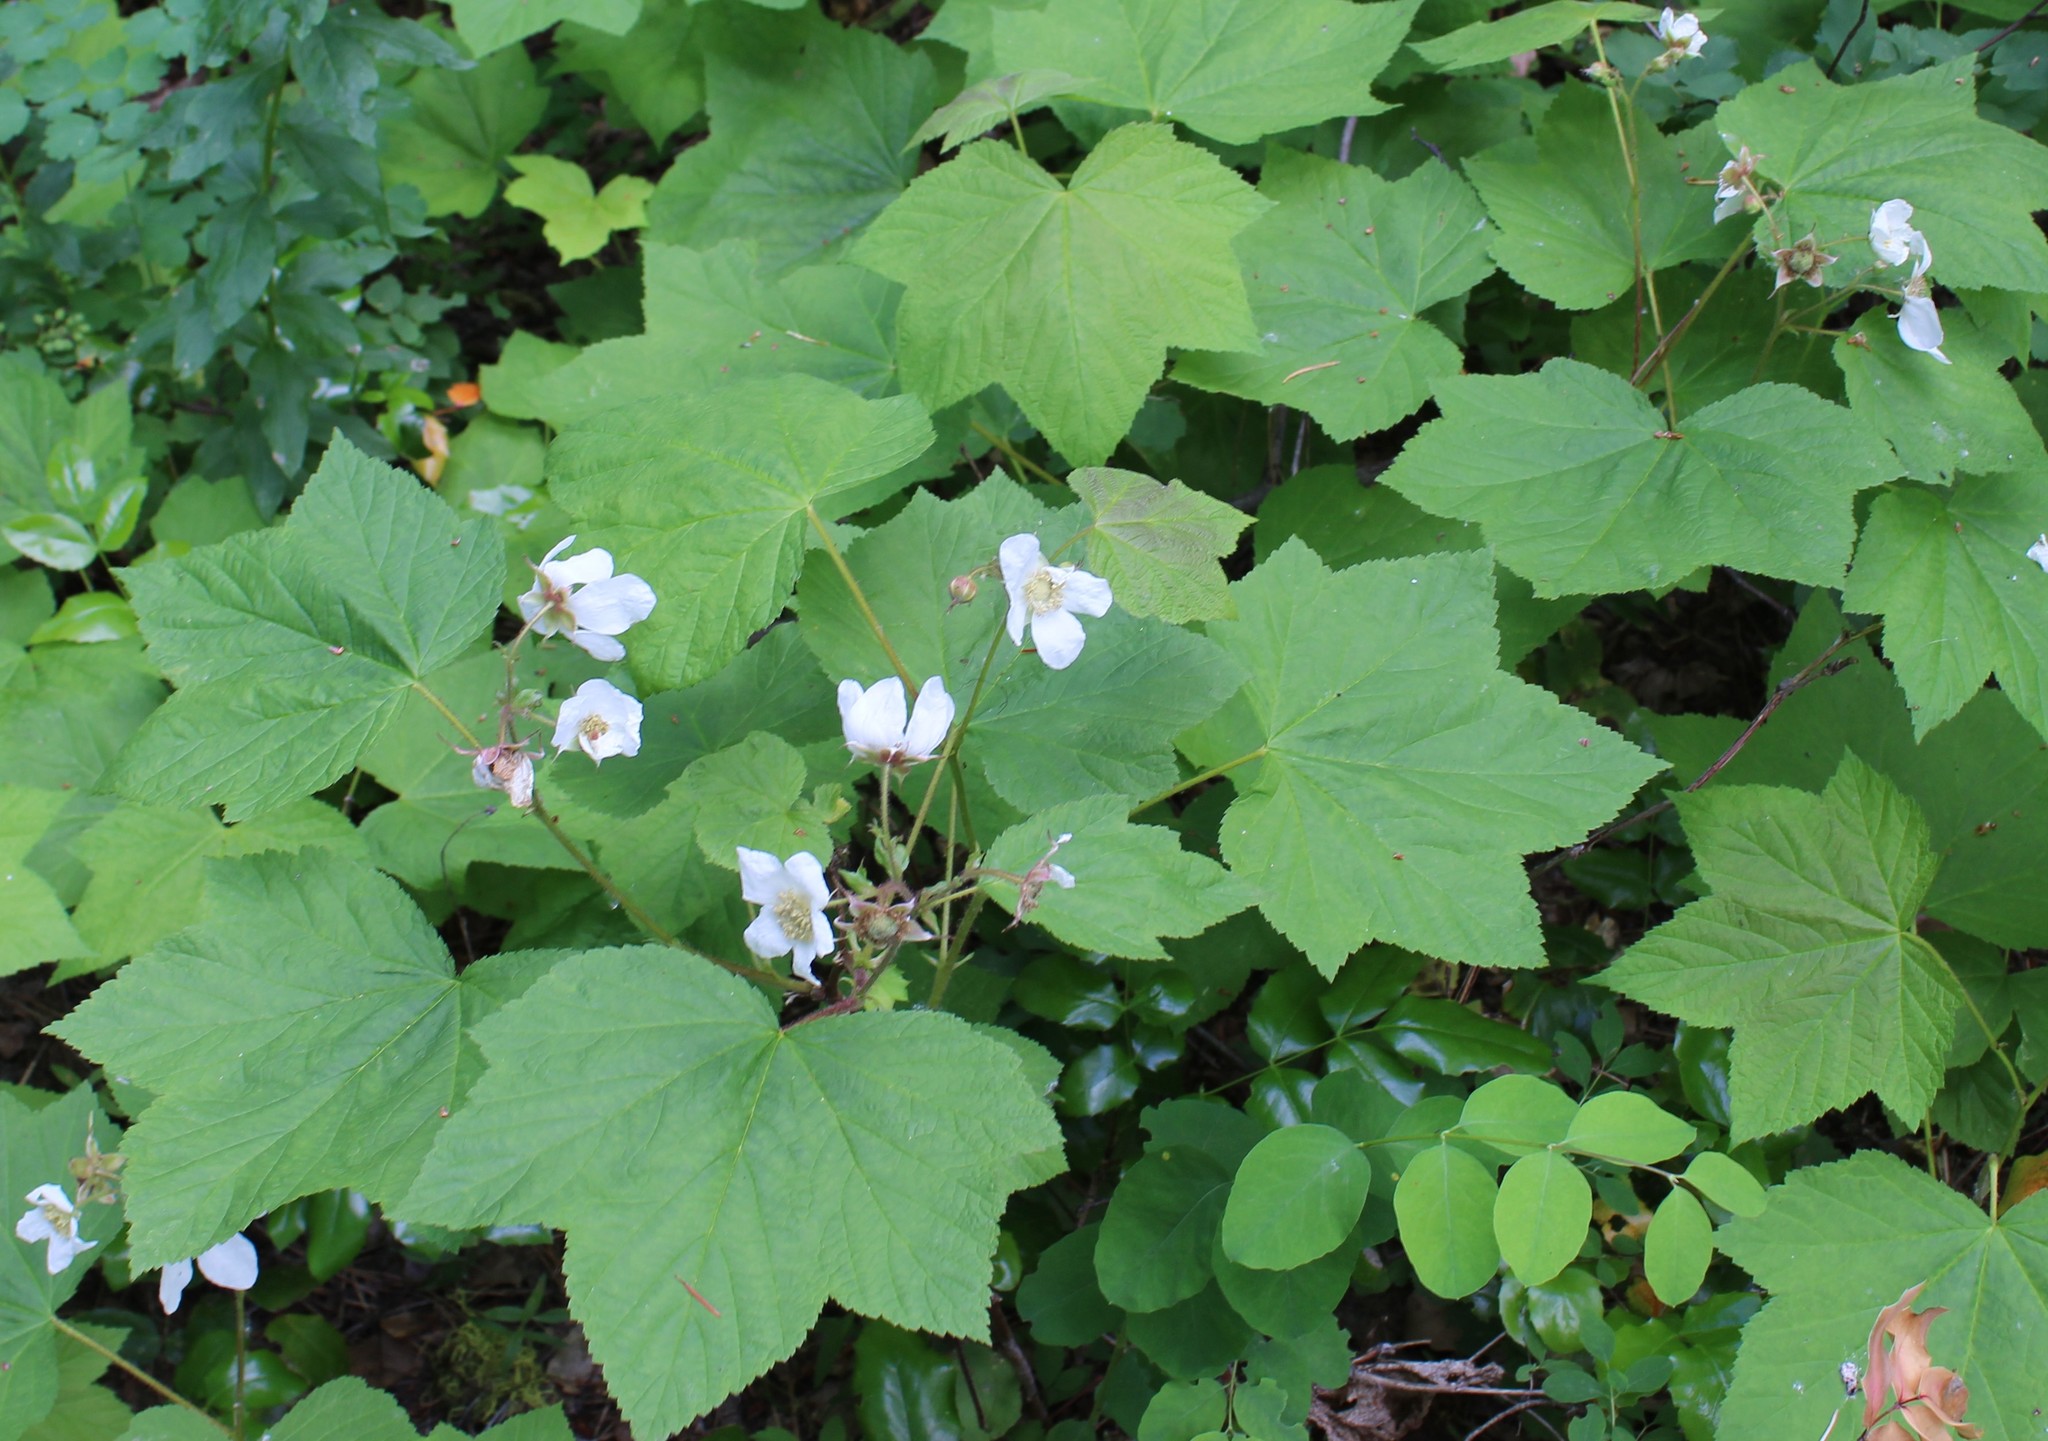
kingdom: Plantae
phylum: Tracheophyta
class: Magnoliopsida
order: Rosales
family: Rosaceae
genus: Rubus
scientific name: Rubus parviflorus
